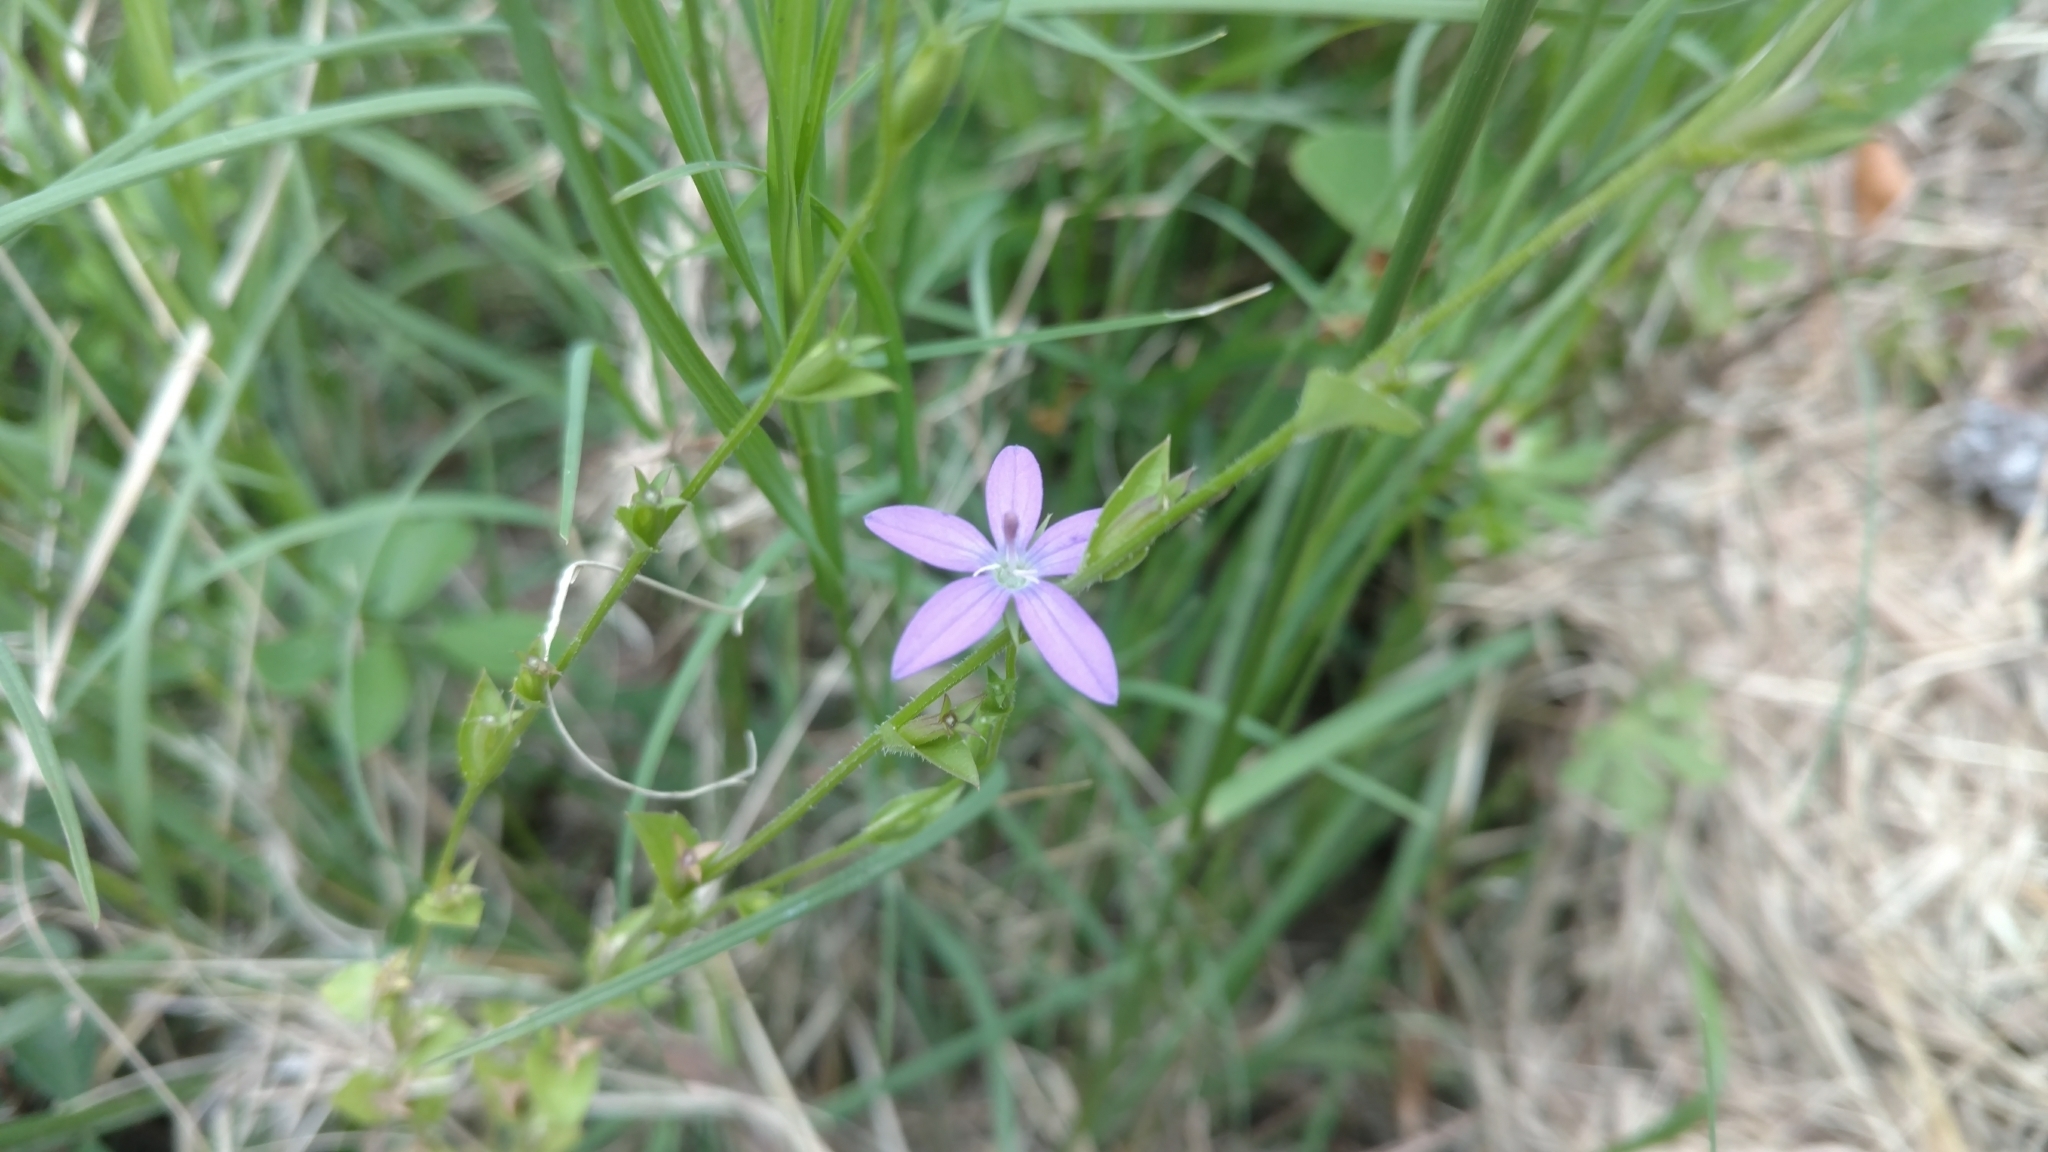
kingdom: Plantae
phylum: Tracheophyta
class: Magnoliopsida
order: Asterales
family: Campanulaceae
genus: Triodanis
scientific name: Triodanis biflora
